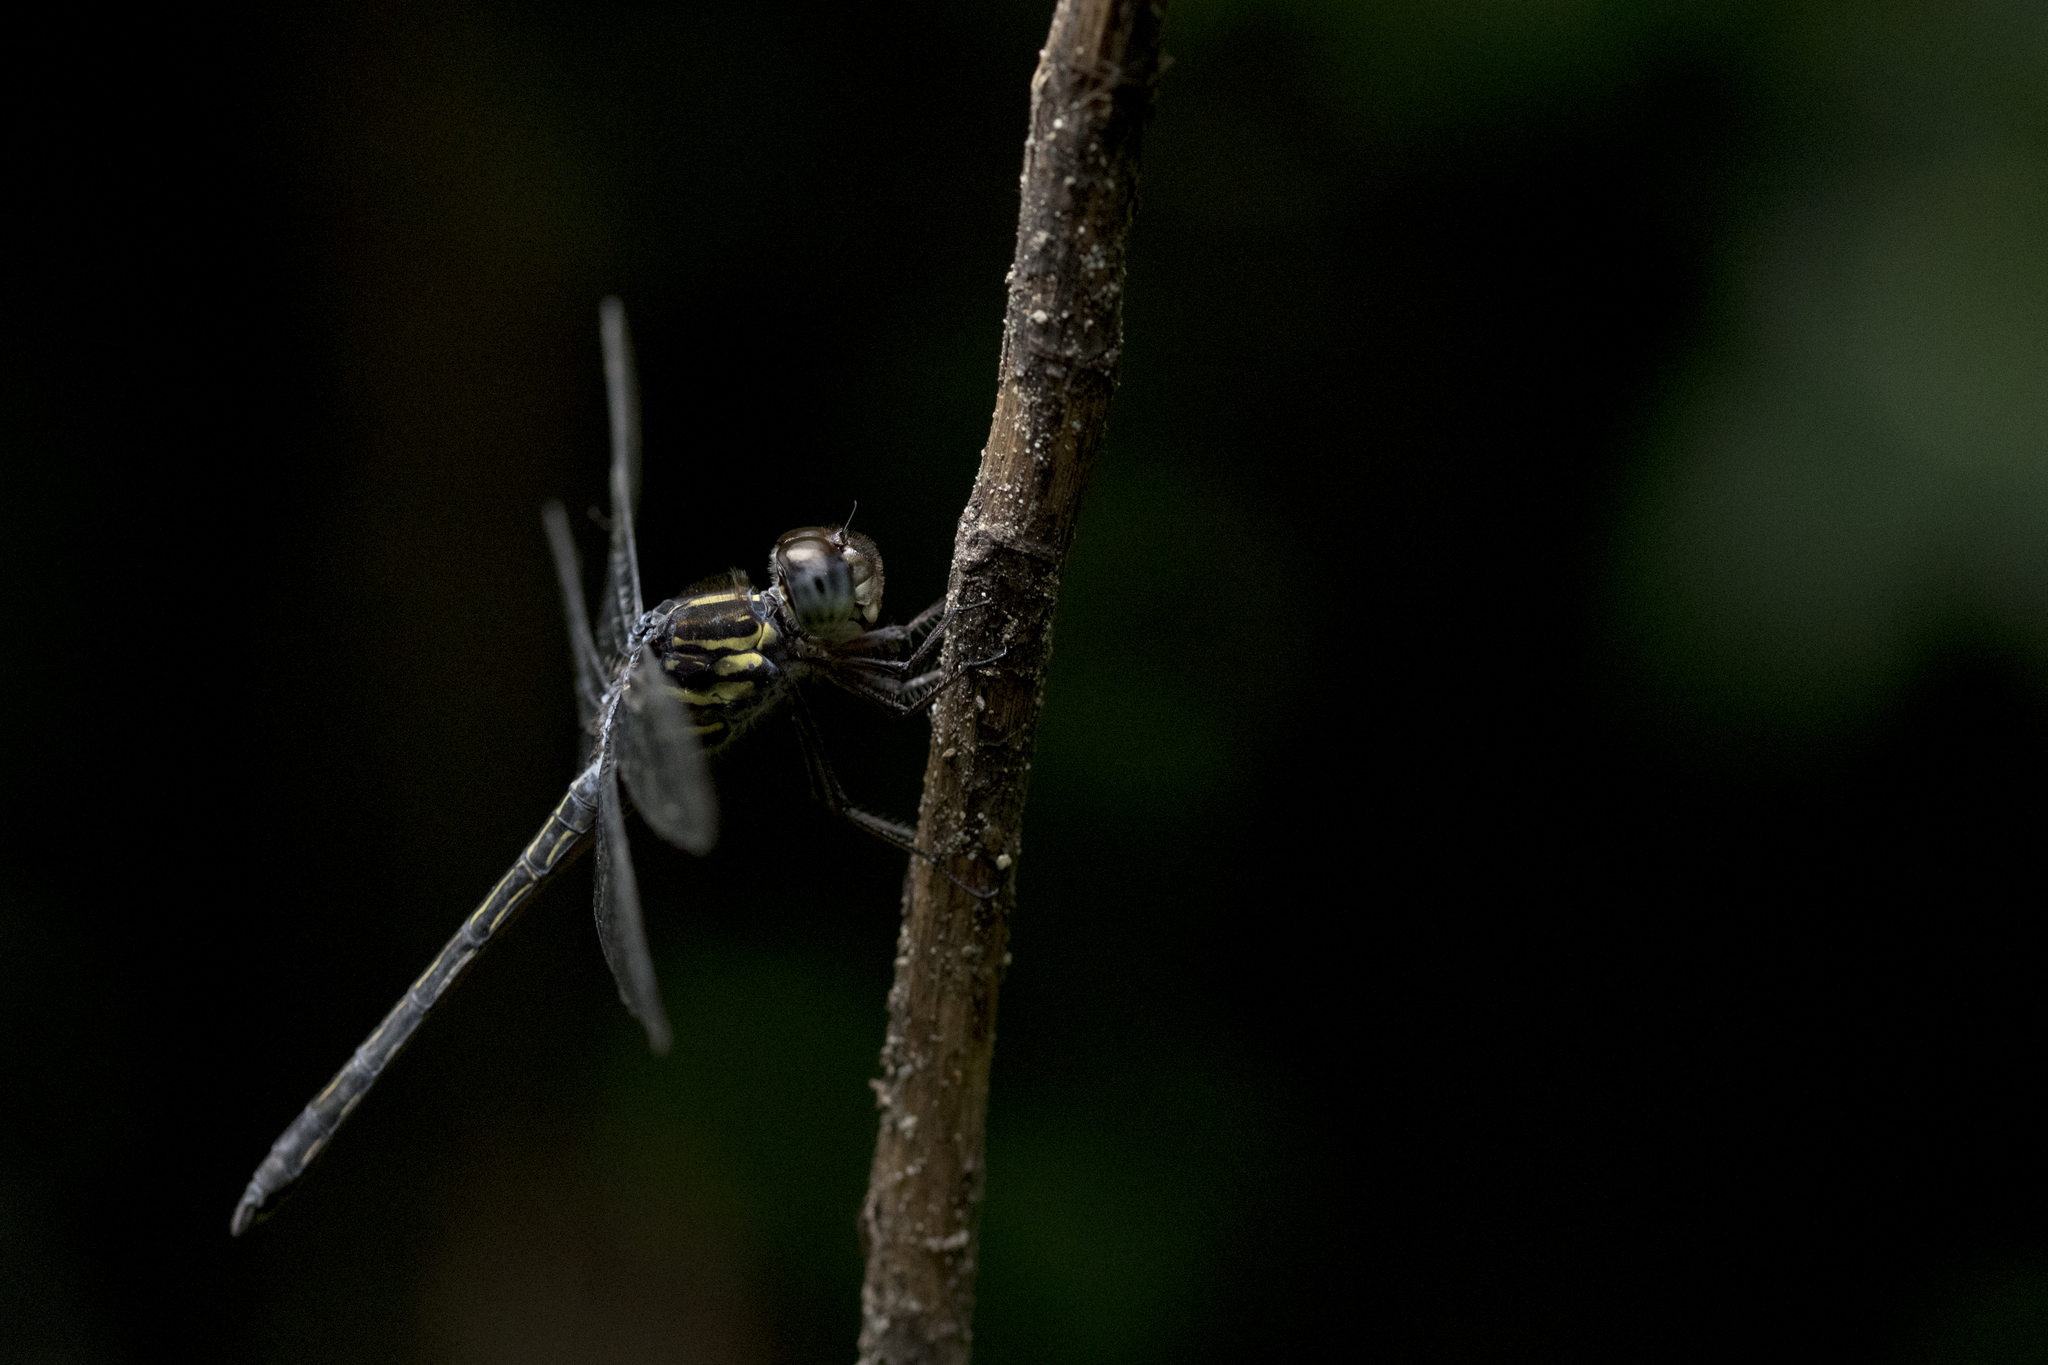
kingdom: Animalia
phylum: Arthropoda
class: Insecta
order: Odonata
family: Libellulidae
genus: Cratilla
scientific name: Cratilla lineata
